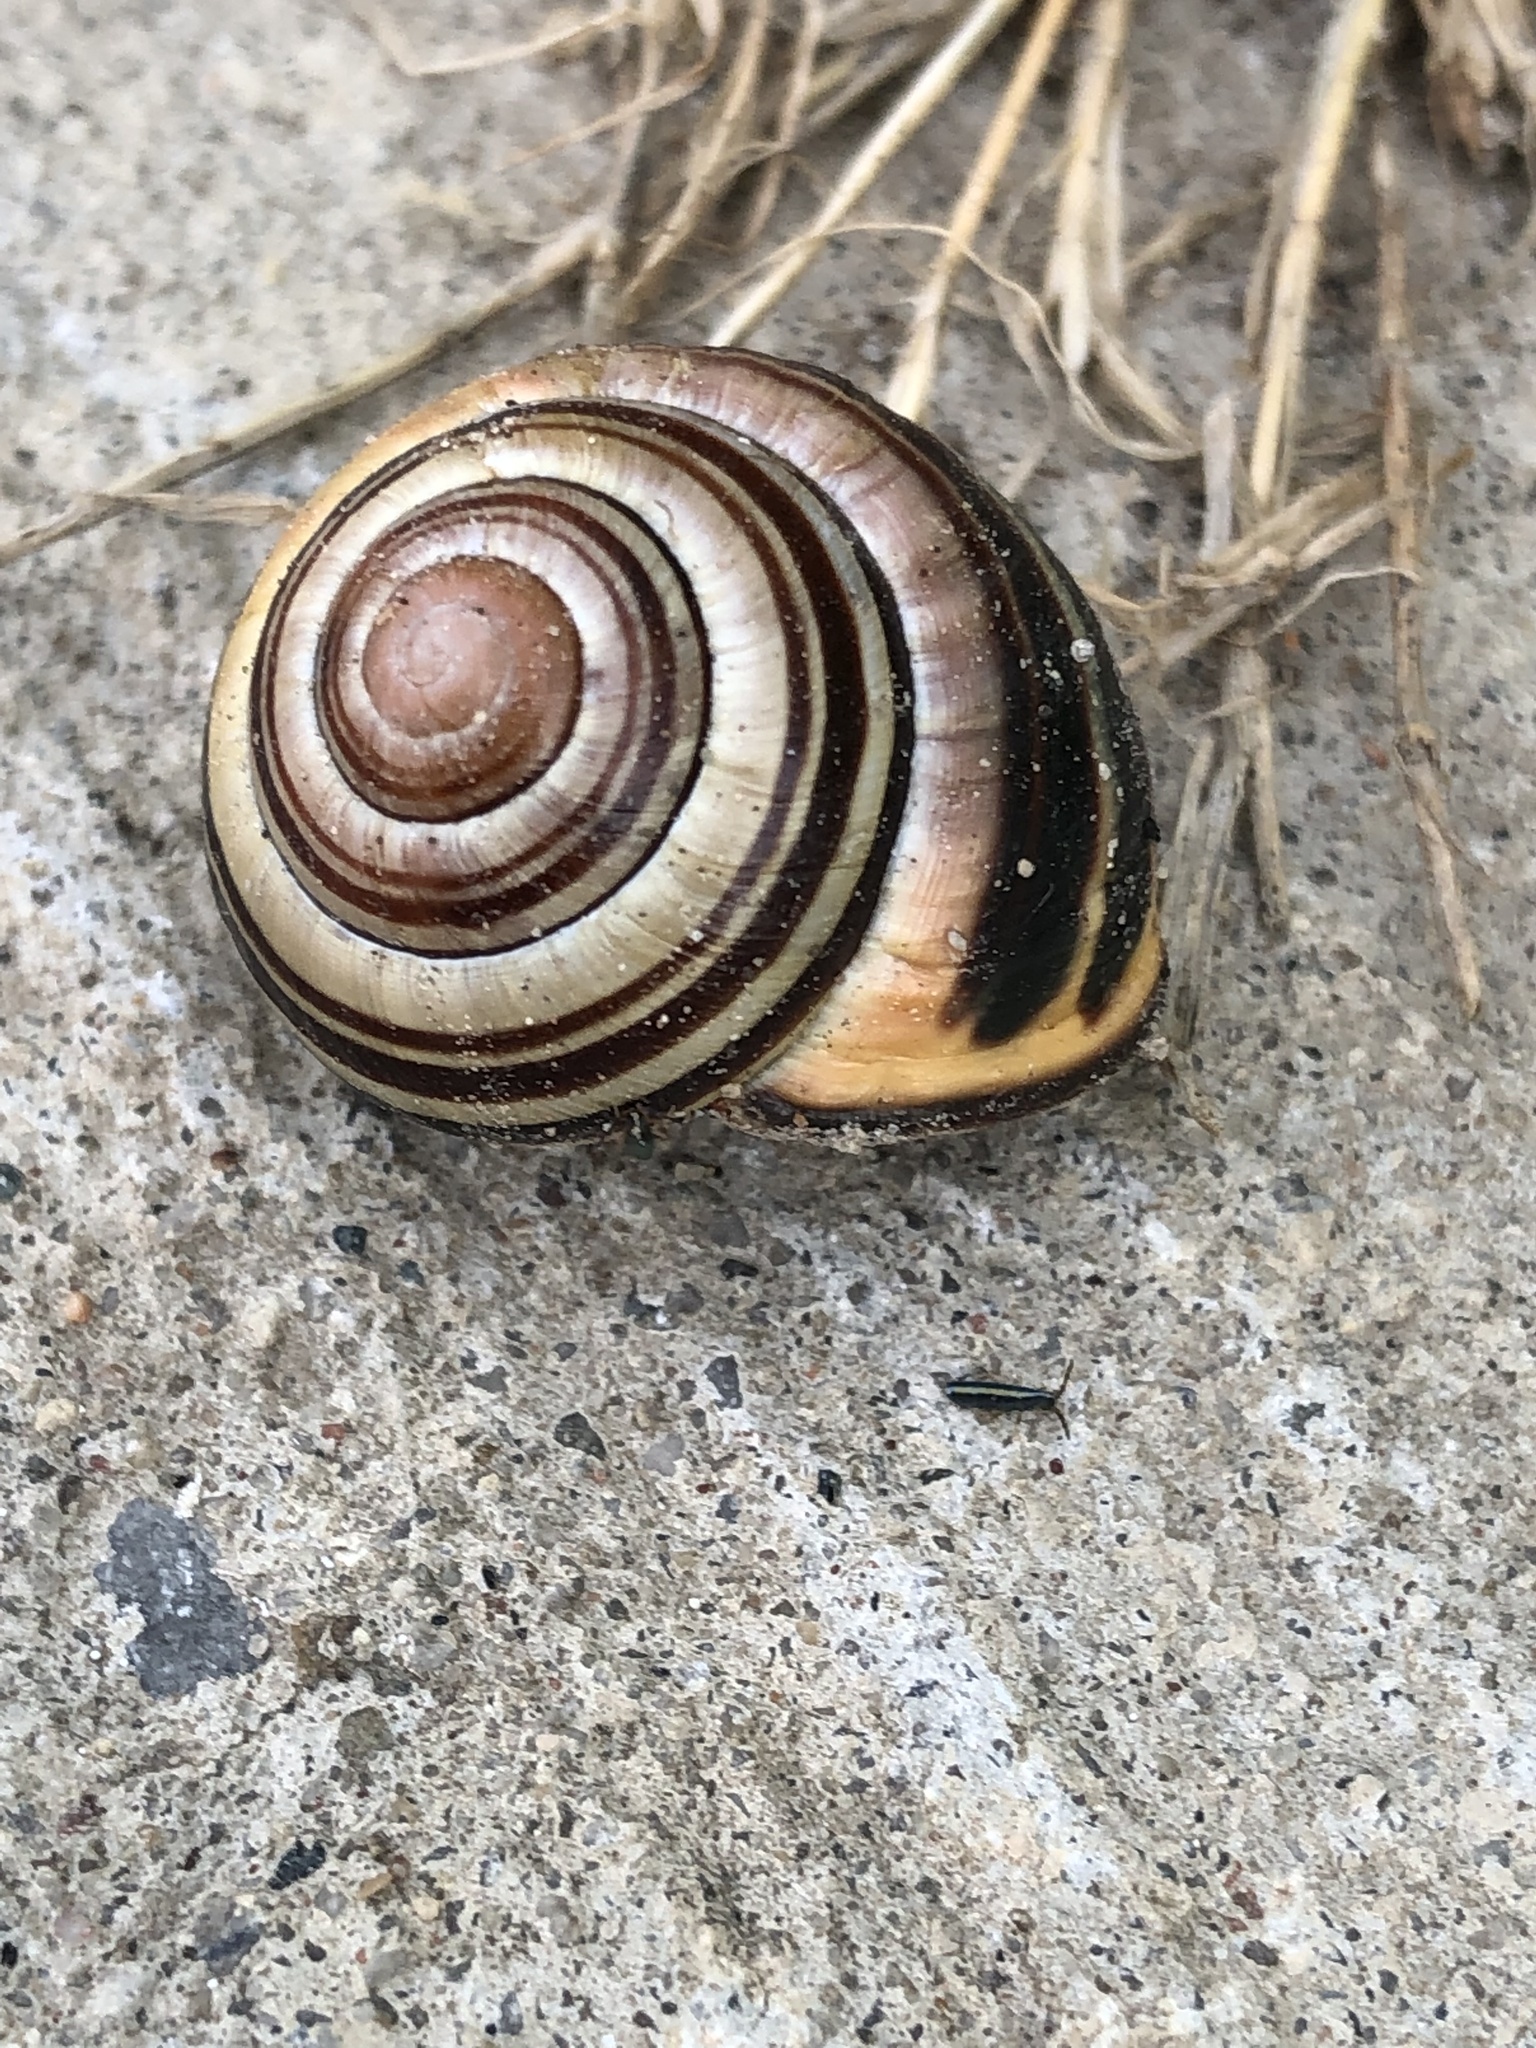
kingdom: Animalia
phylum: Mollusca
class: Gastropoda
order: Stylommatophora
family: Helicidae
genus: Cepaea
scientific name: Cepaea nemoralis
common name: Grovesnail
